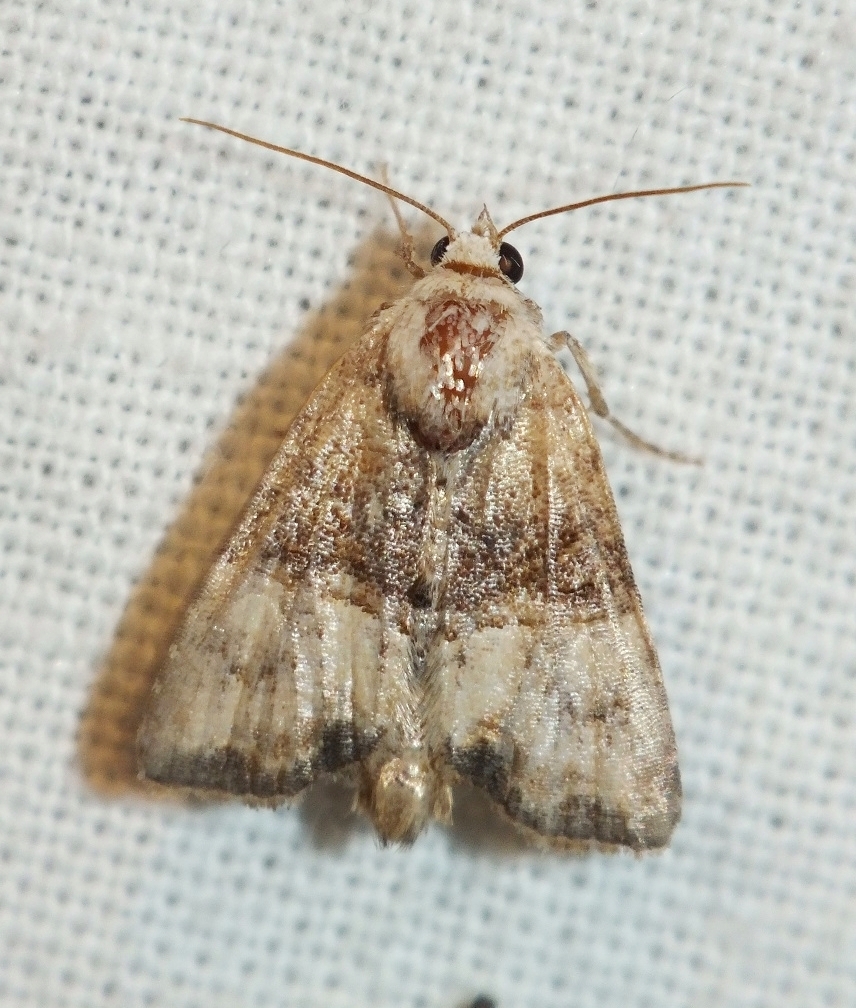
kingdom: Animalia
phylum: Arthropoda
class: Insecta
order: Lepidoptera
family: Noctuidae
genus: Mesoligia
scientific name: Mesoligia furuncula
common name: Cloaked minor
